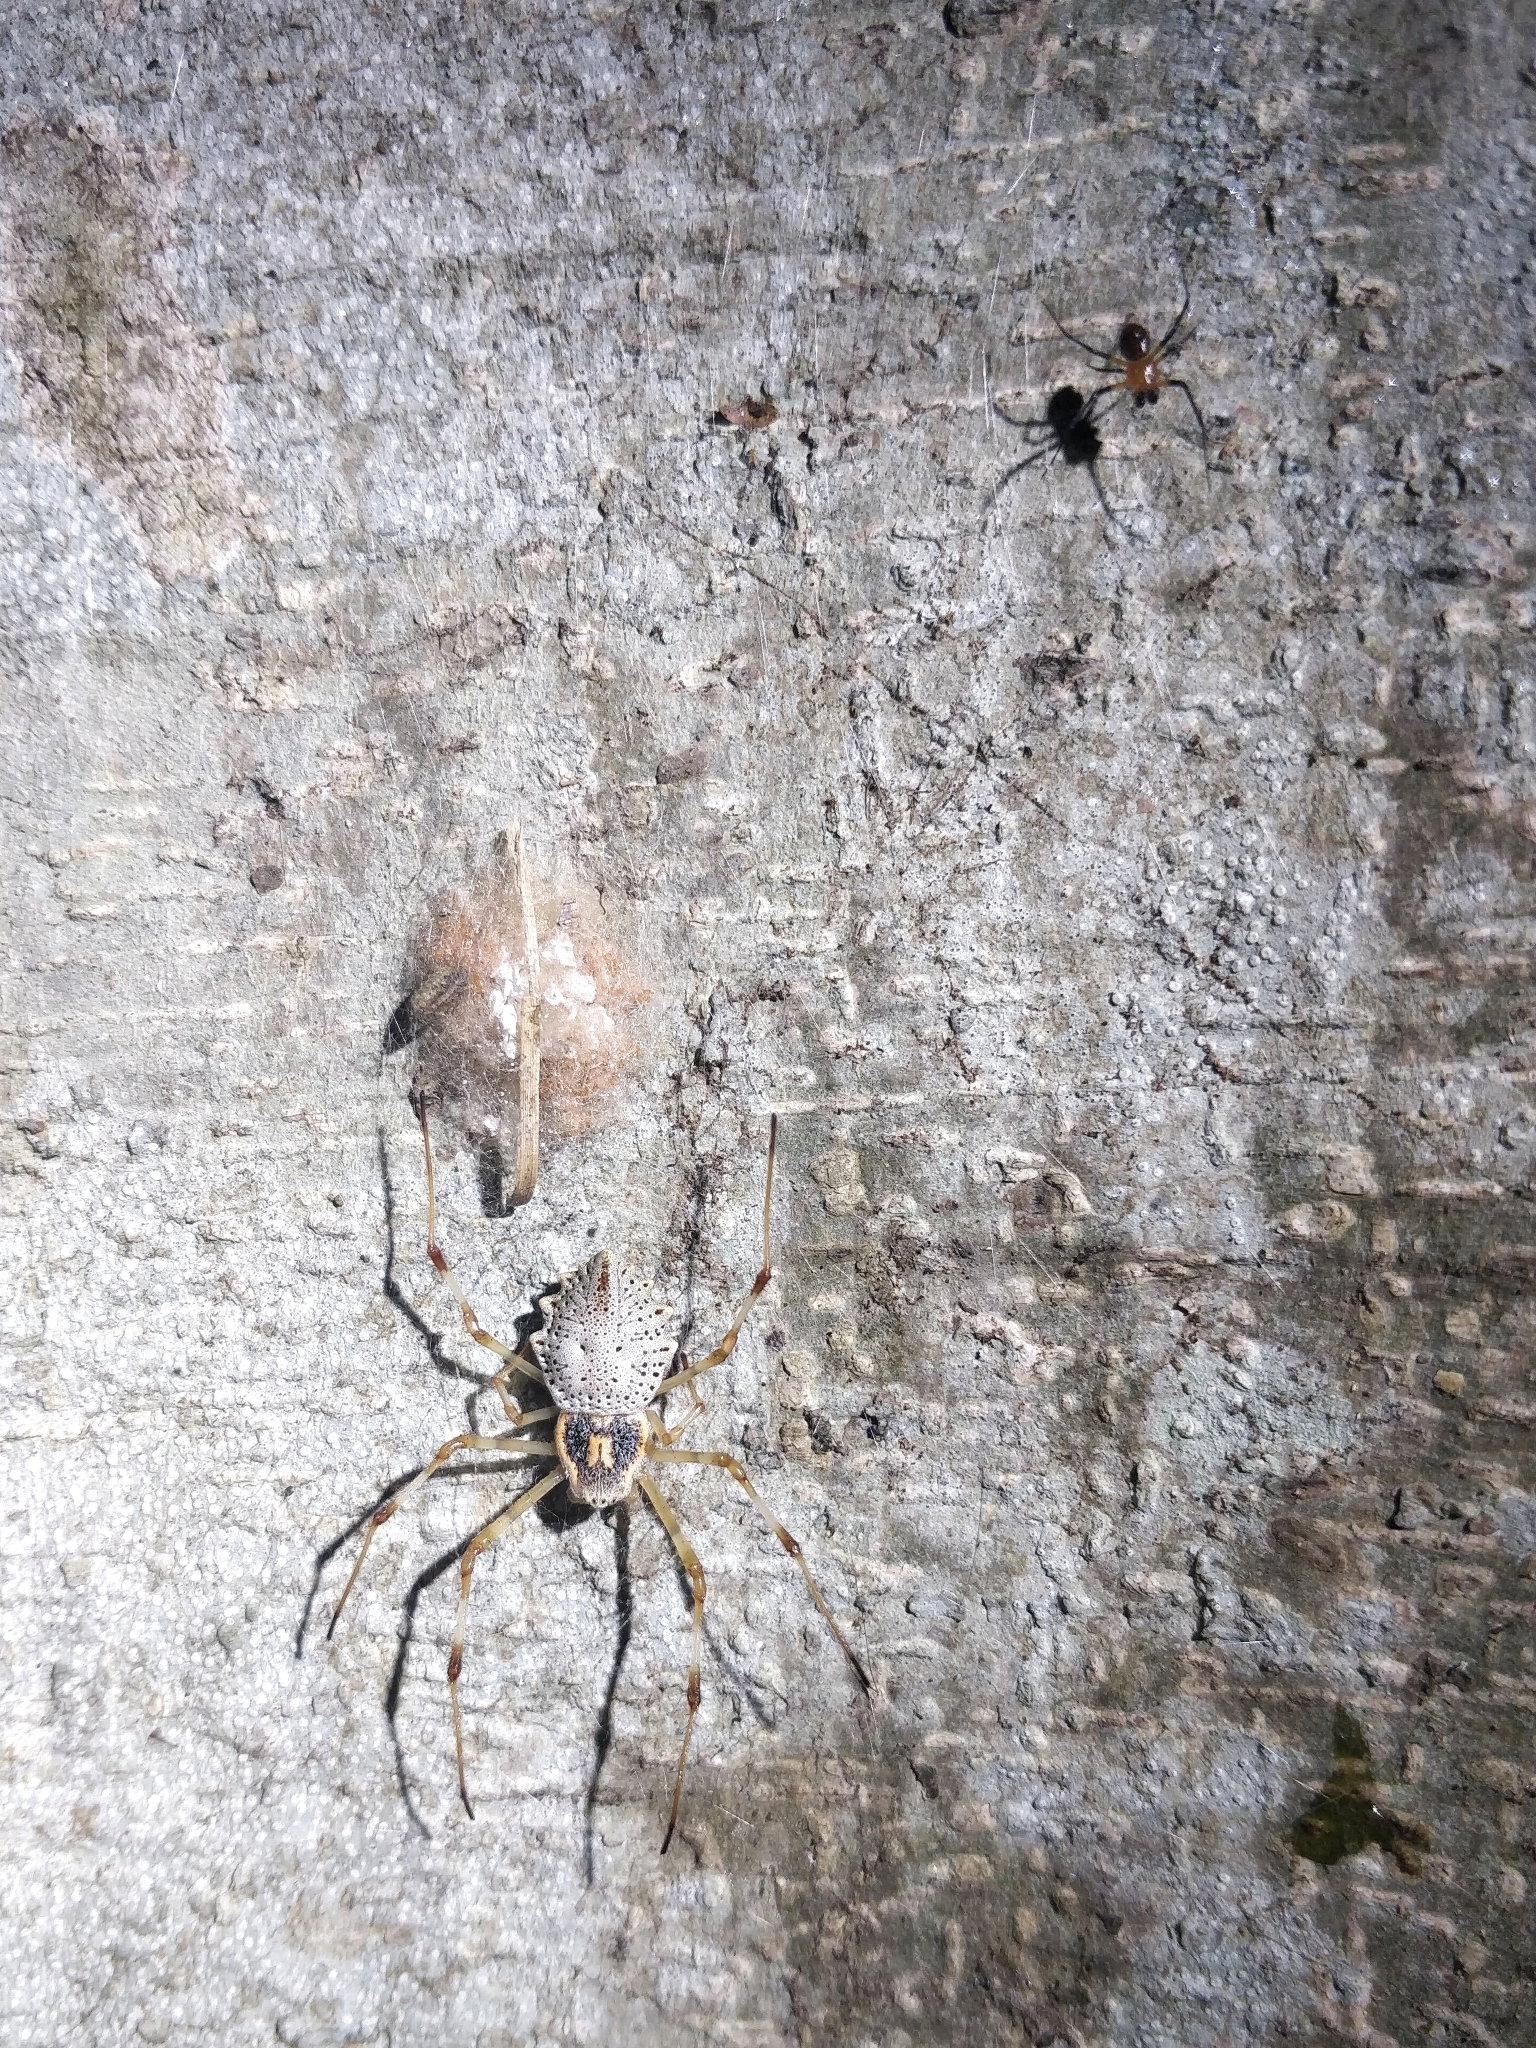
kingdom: Animalia
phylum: Arthropoda
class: Arachnida
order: Araneae
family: Araneidae
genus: Herennia
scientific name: Herennia multipuncta
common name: Spotted coin spider
